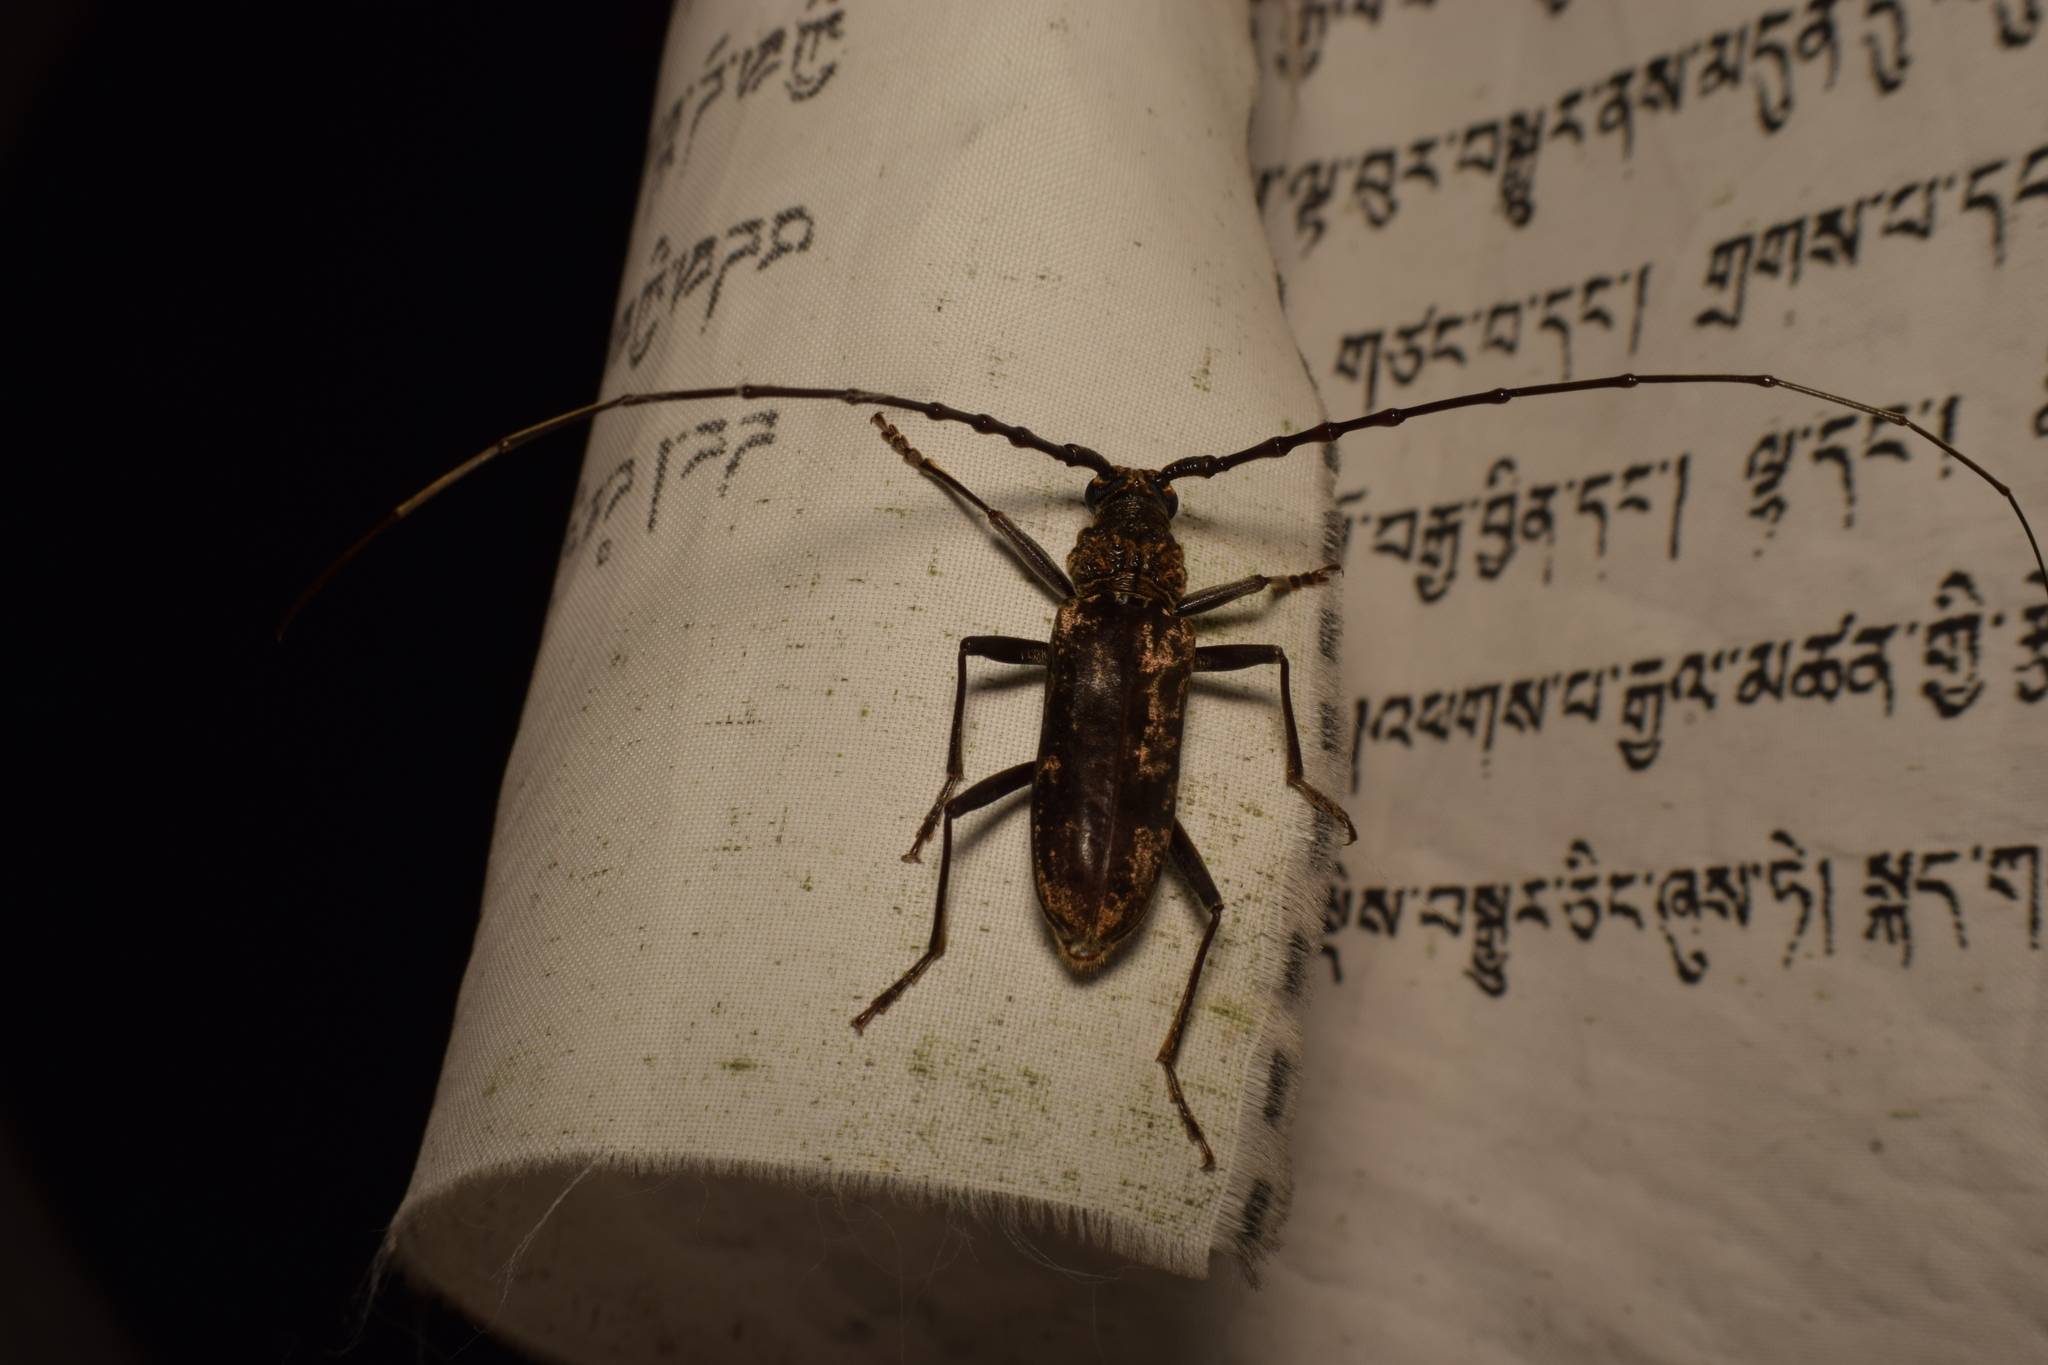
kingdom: Animalia
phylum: Arthropoda
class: Insecta
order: Coleoptera
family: Cerambycidae
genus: Trirachys
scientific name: Trirachys sinensis
